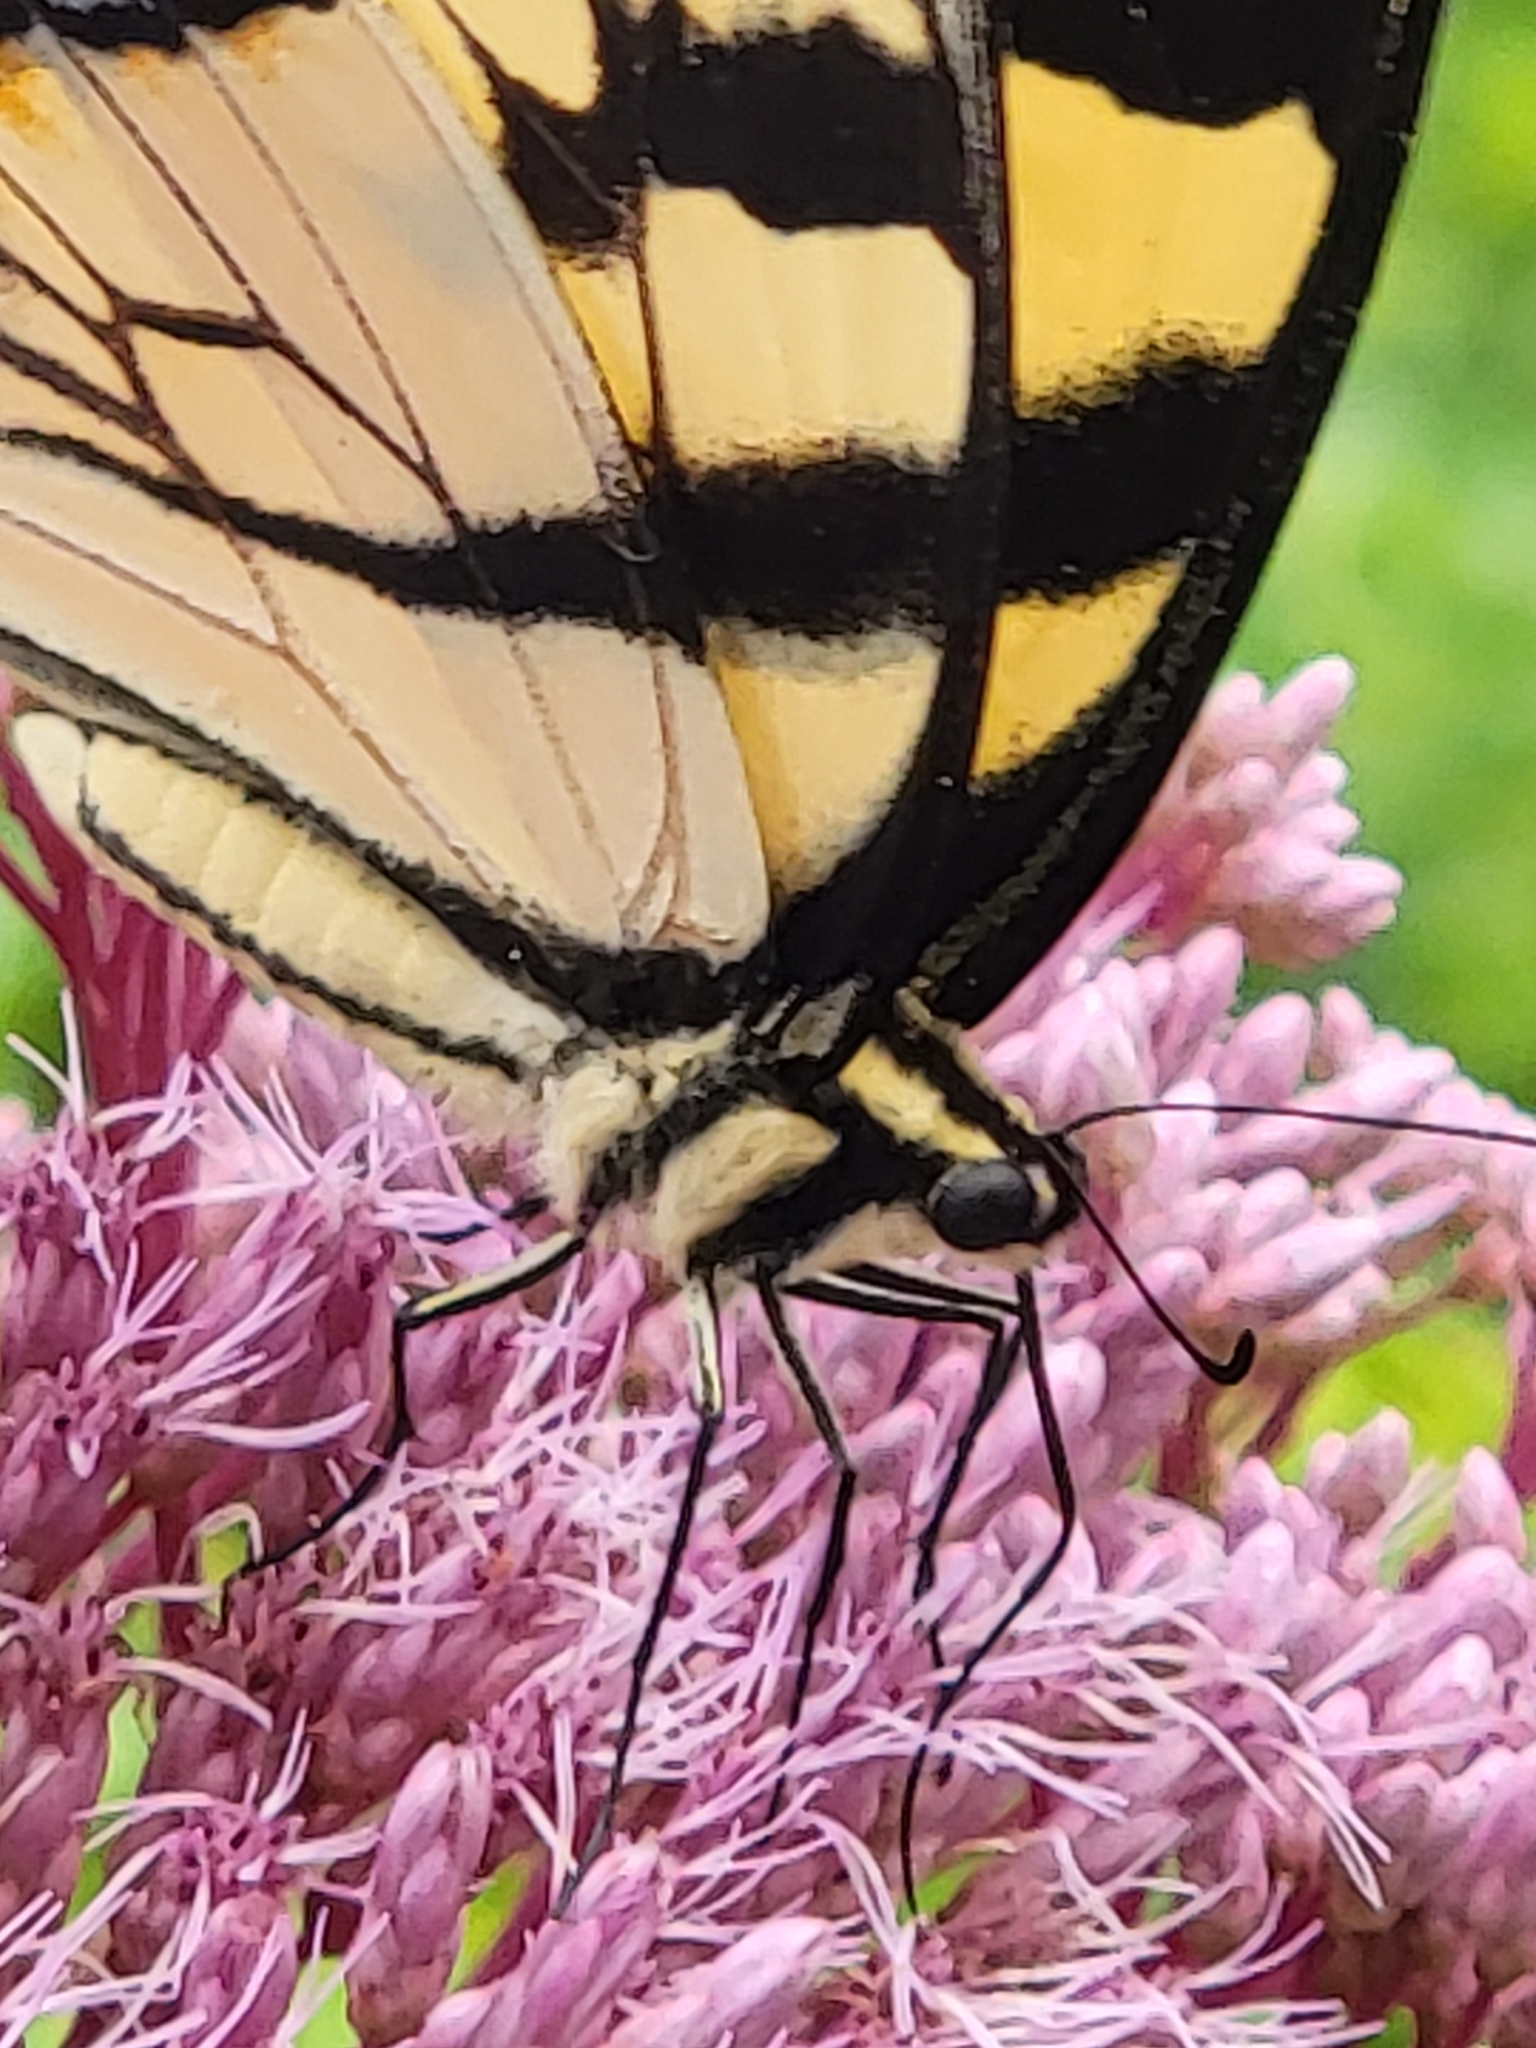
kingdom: Animalia
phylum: Arthropoda
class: Insecta
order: Lepidoptera
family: Papilionidae
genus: Papilio
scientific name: Papilio glaucus
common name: Tiger swallowtail
